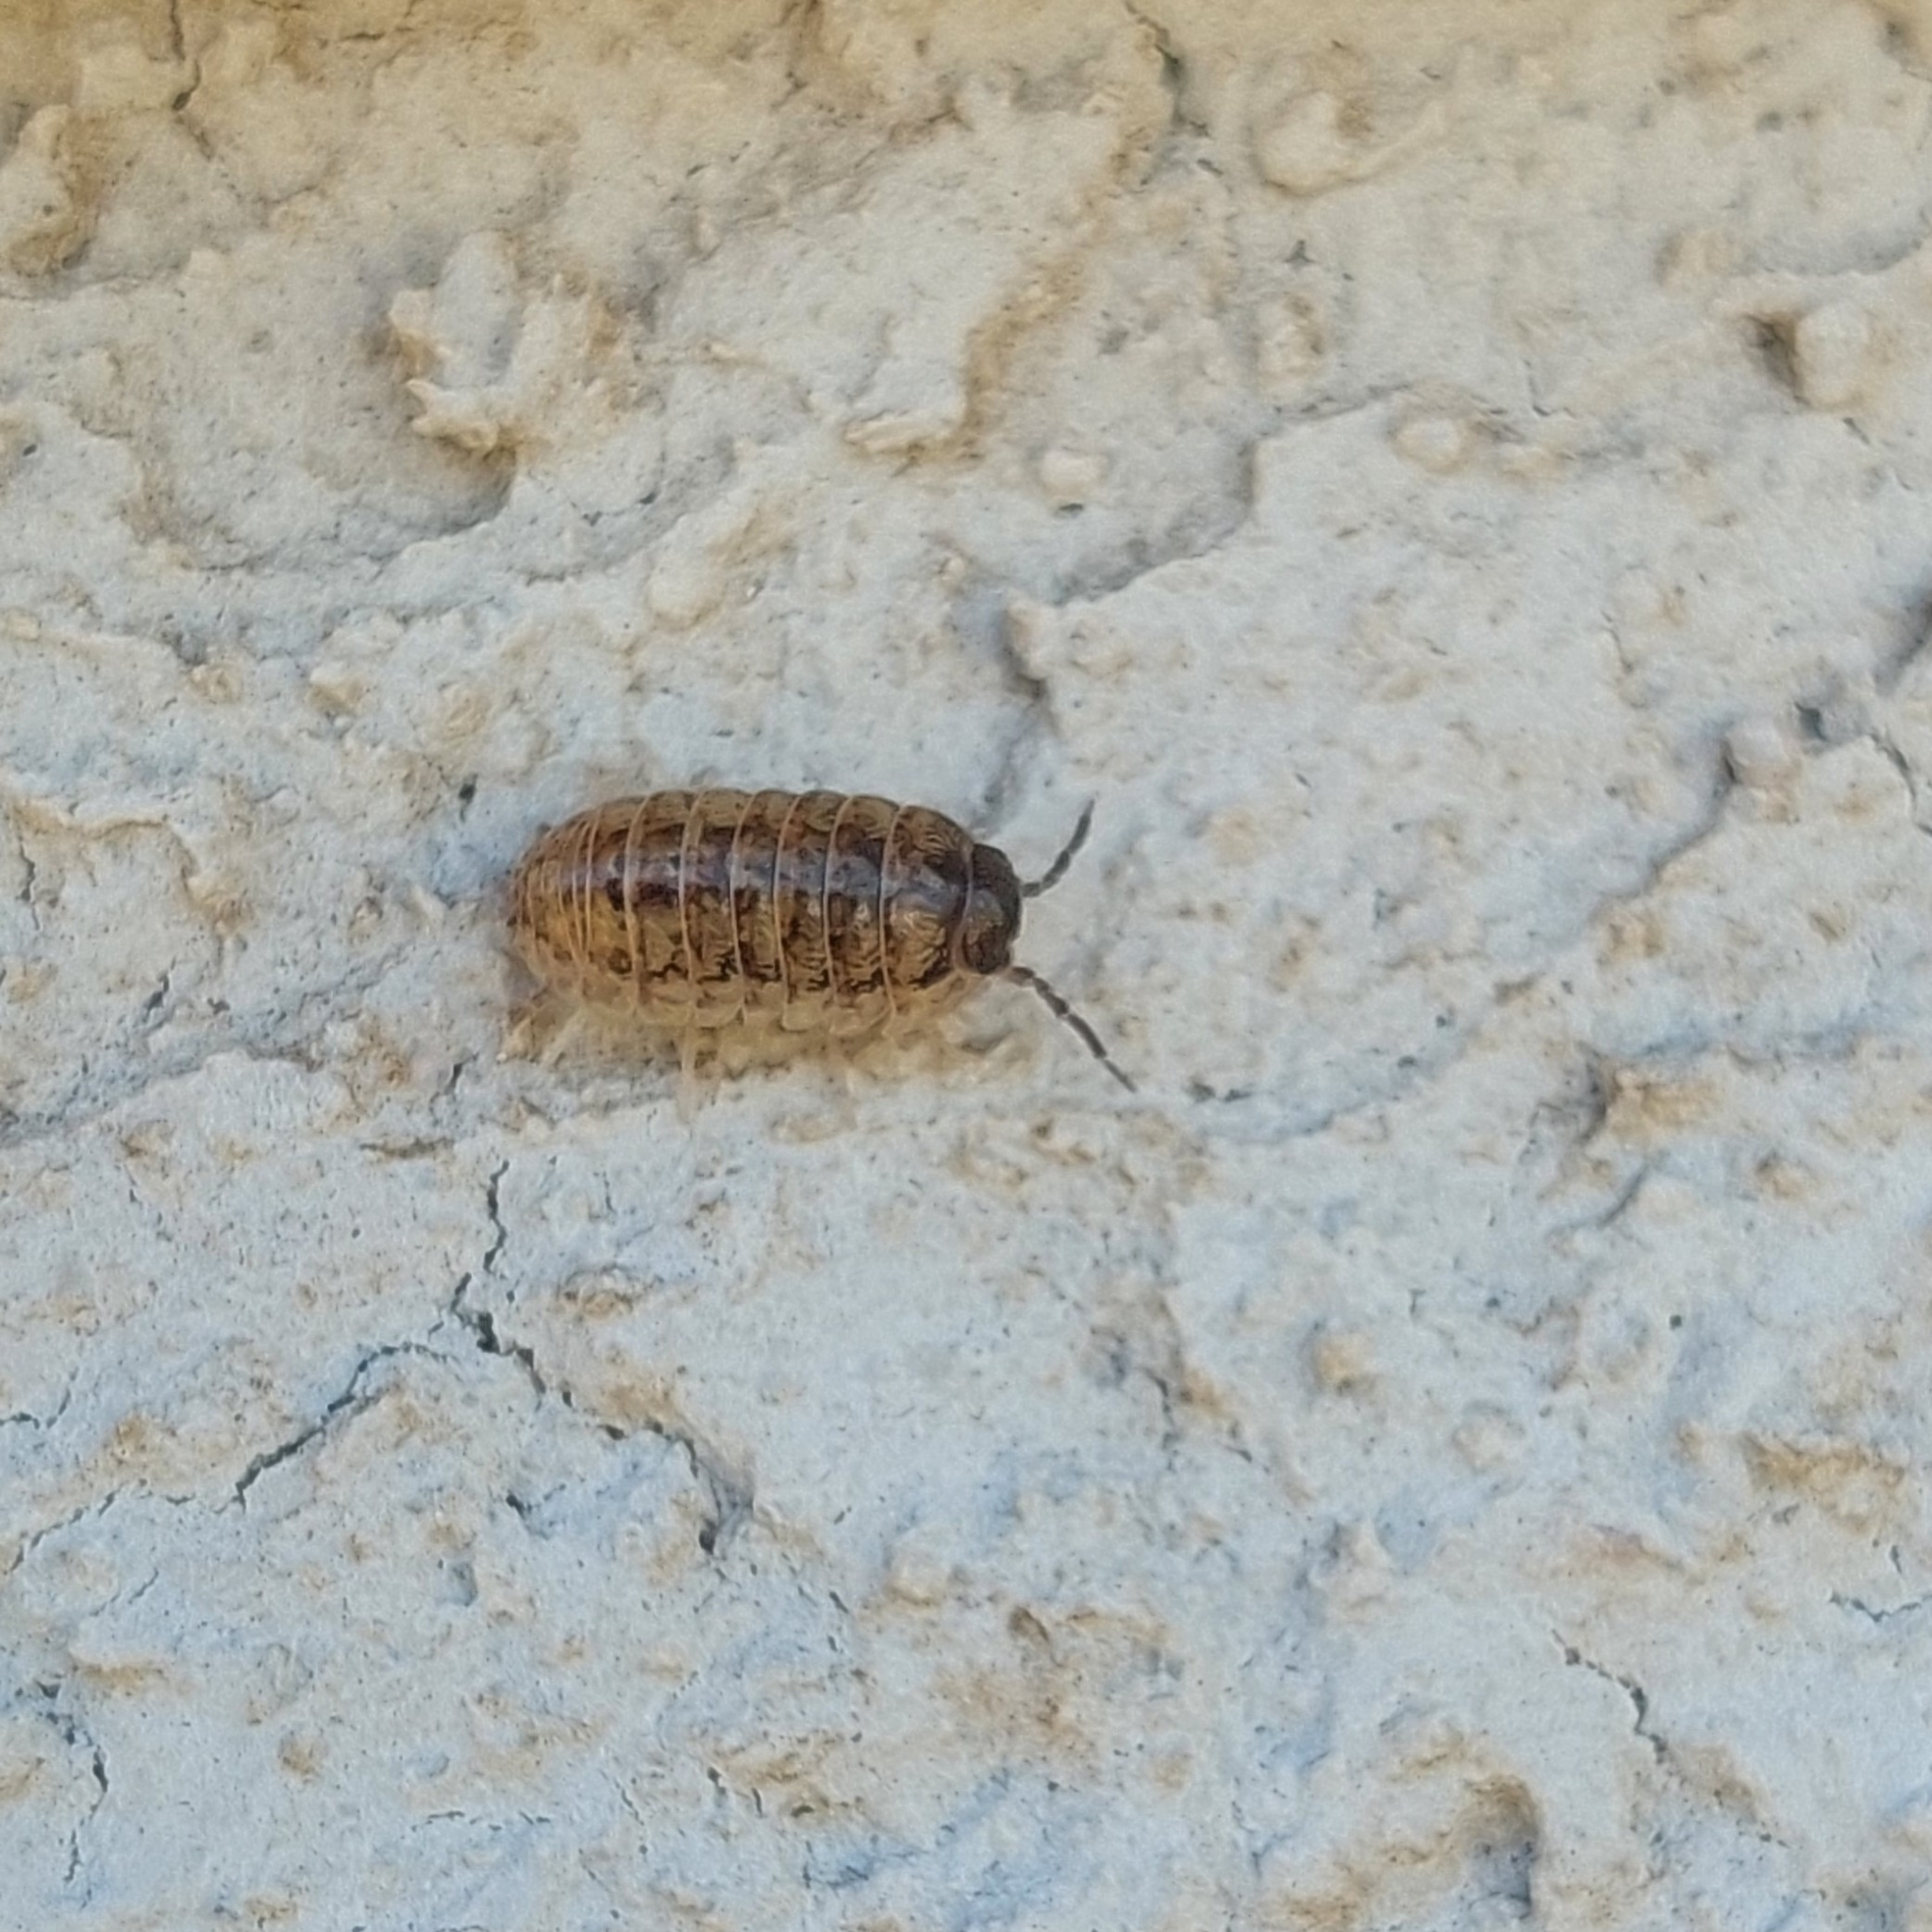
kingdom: Animalia
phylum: Arthropoda
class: Malacostraca
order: Isopoda
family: Armadillidiidae
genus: Armadillidium
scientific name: Armadillidium vulgare
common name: Common pill woodlouse
